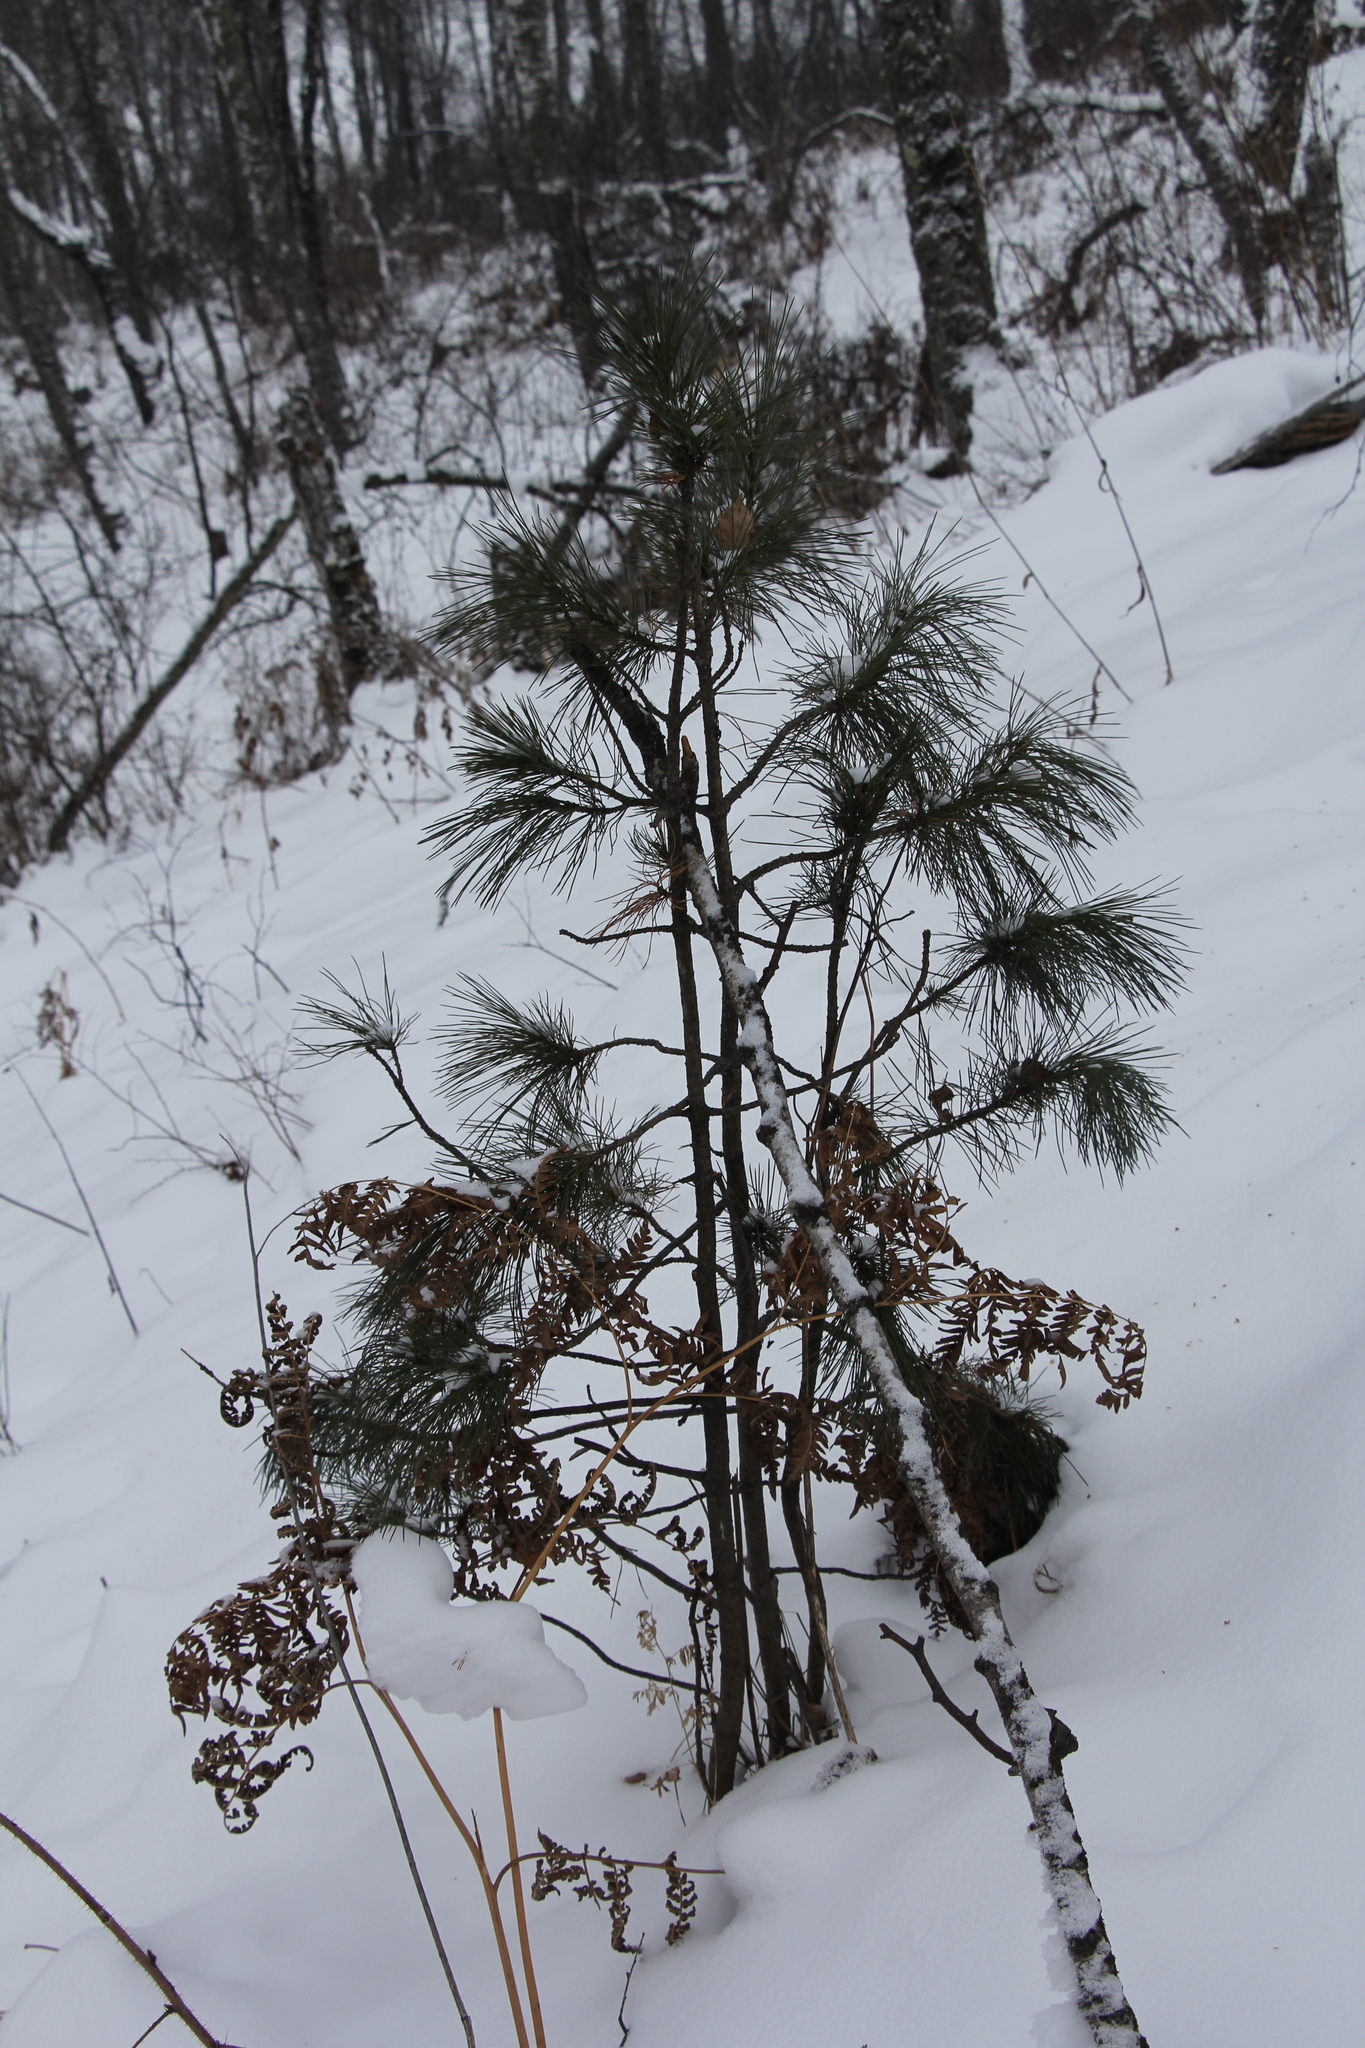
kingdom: Plantae
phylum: Tracheophyta
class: Pinopsida
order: Pinales
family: Pinaceae
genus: Pinus
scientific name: Pinus sibirica
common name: Siberian pine
